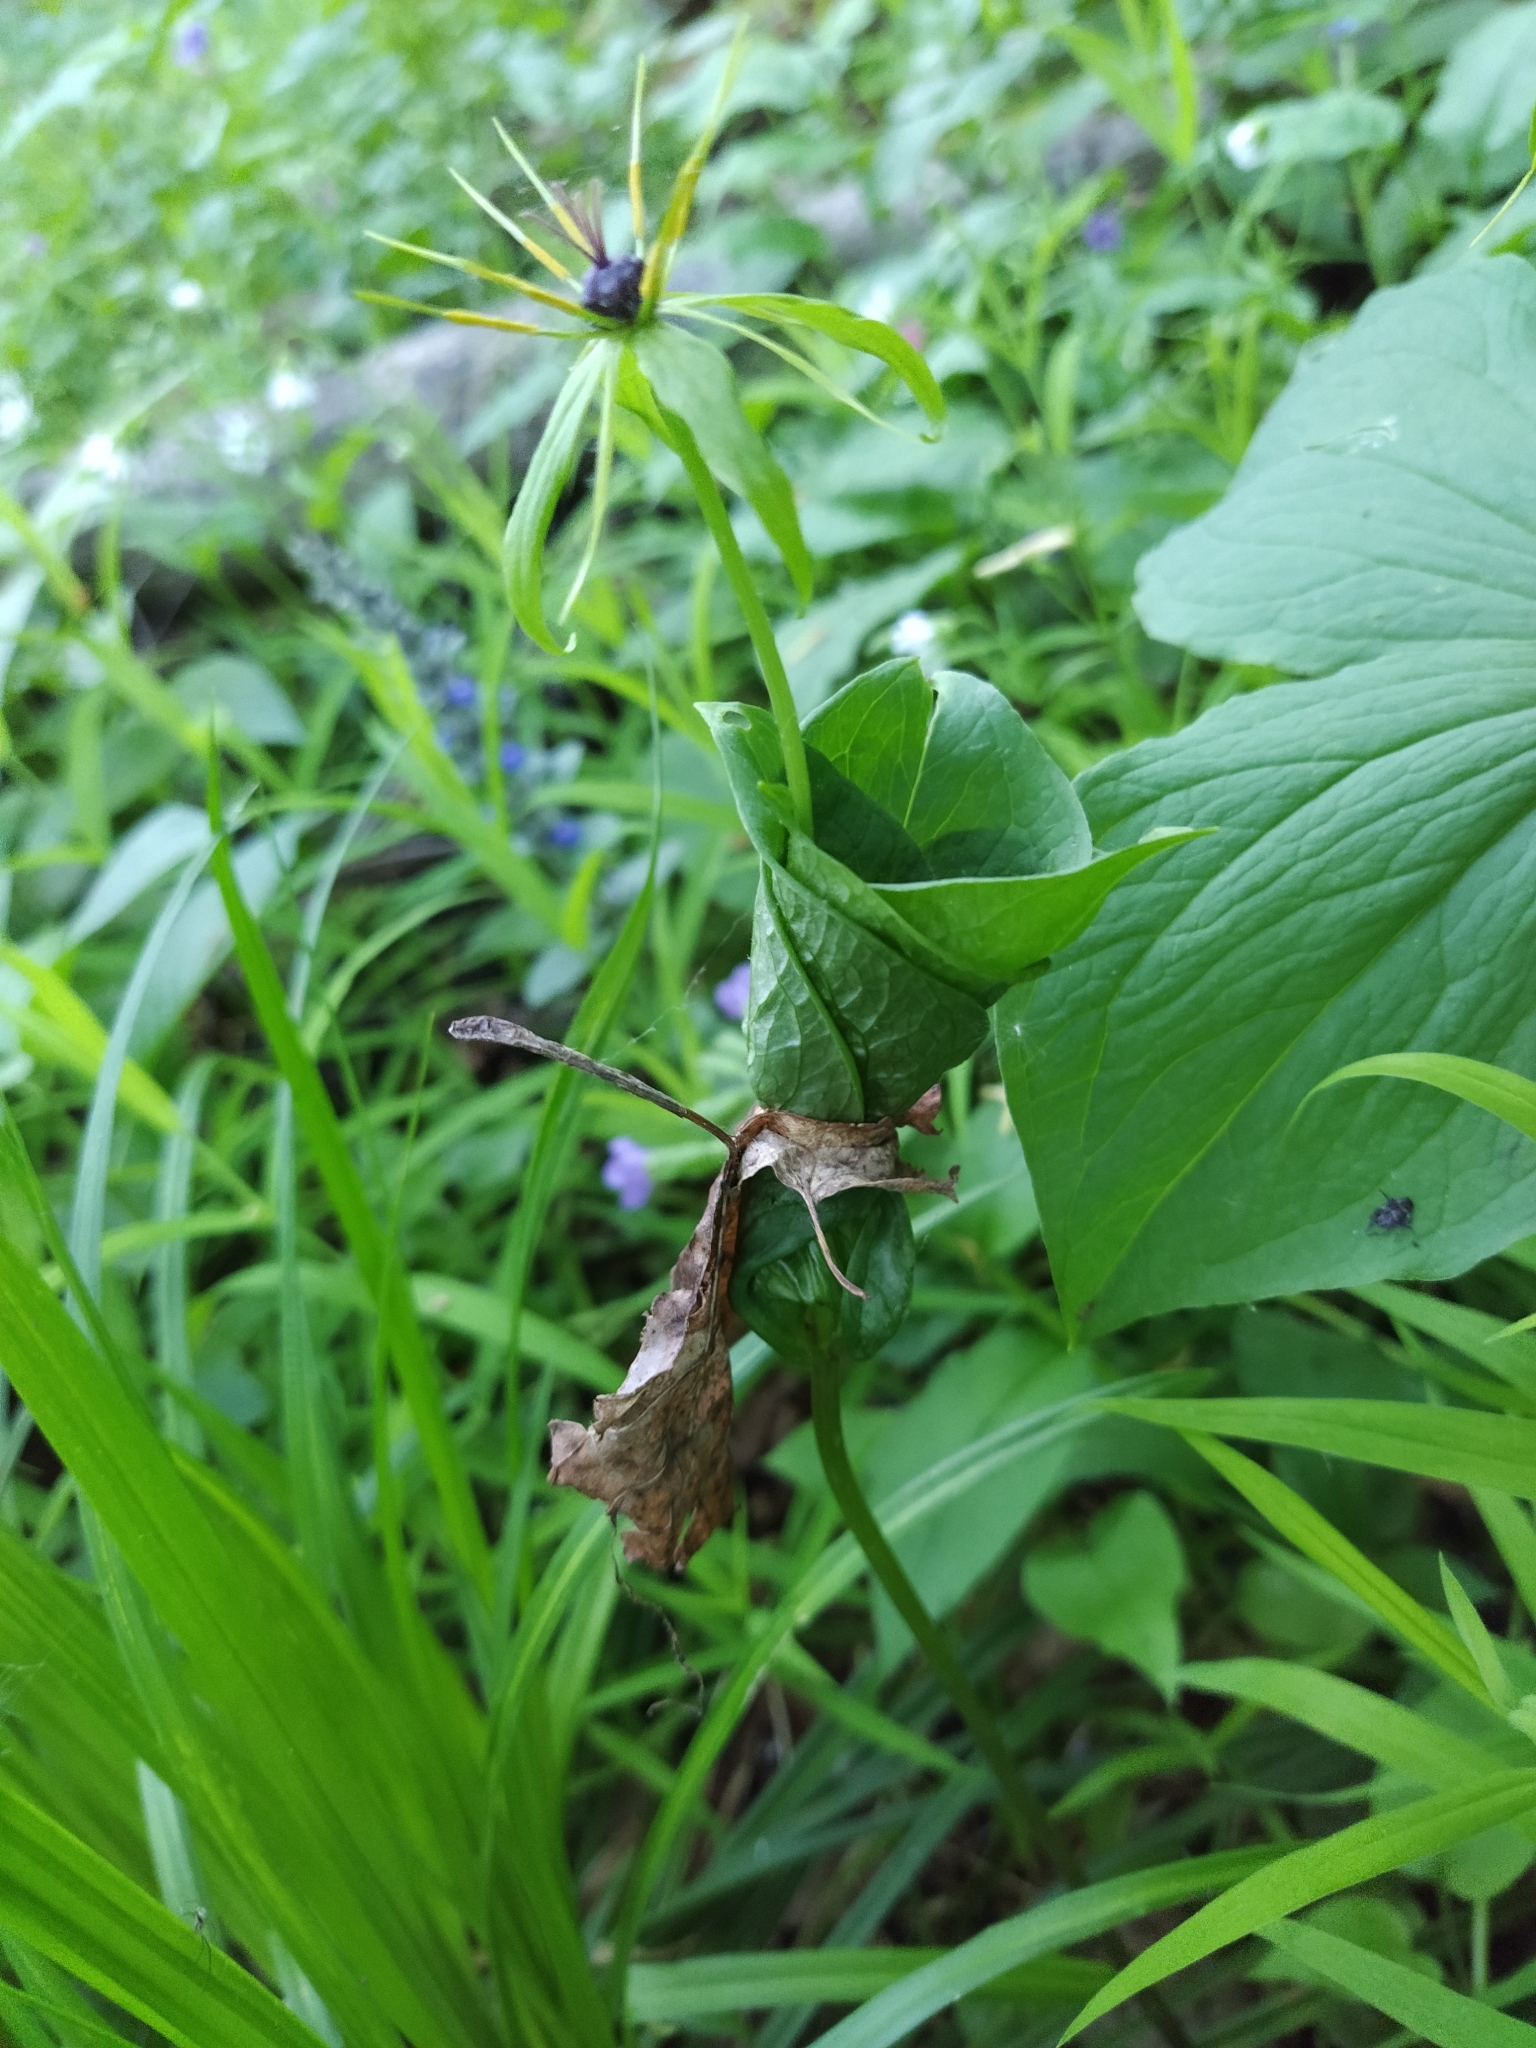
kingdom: Plantae
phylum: Tracheophyta
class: Liliopsida
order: Liliales
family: Melanthiaceae
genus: Paris
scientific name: Paris quadrifolia
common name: Herb-paris
